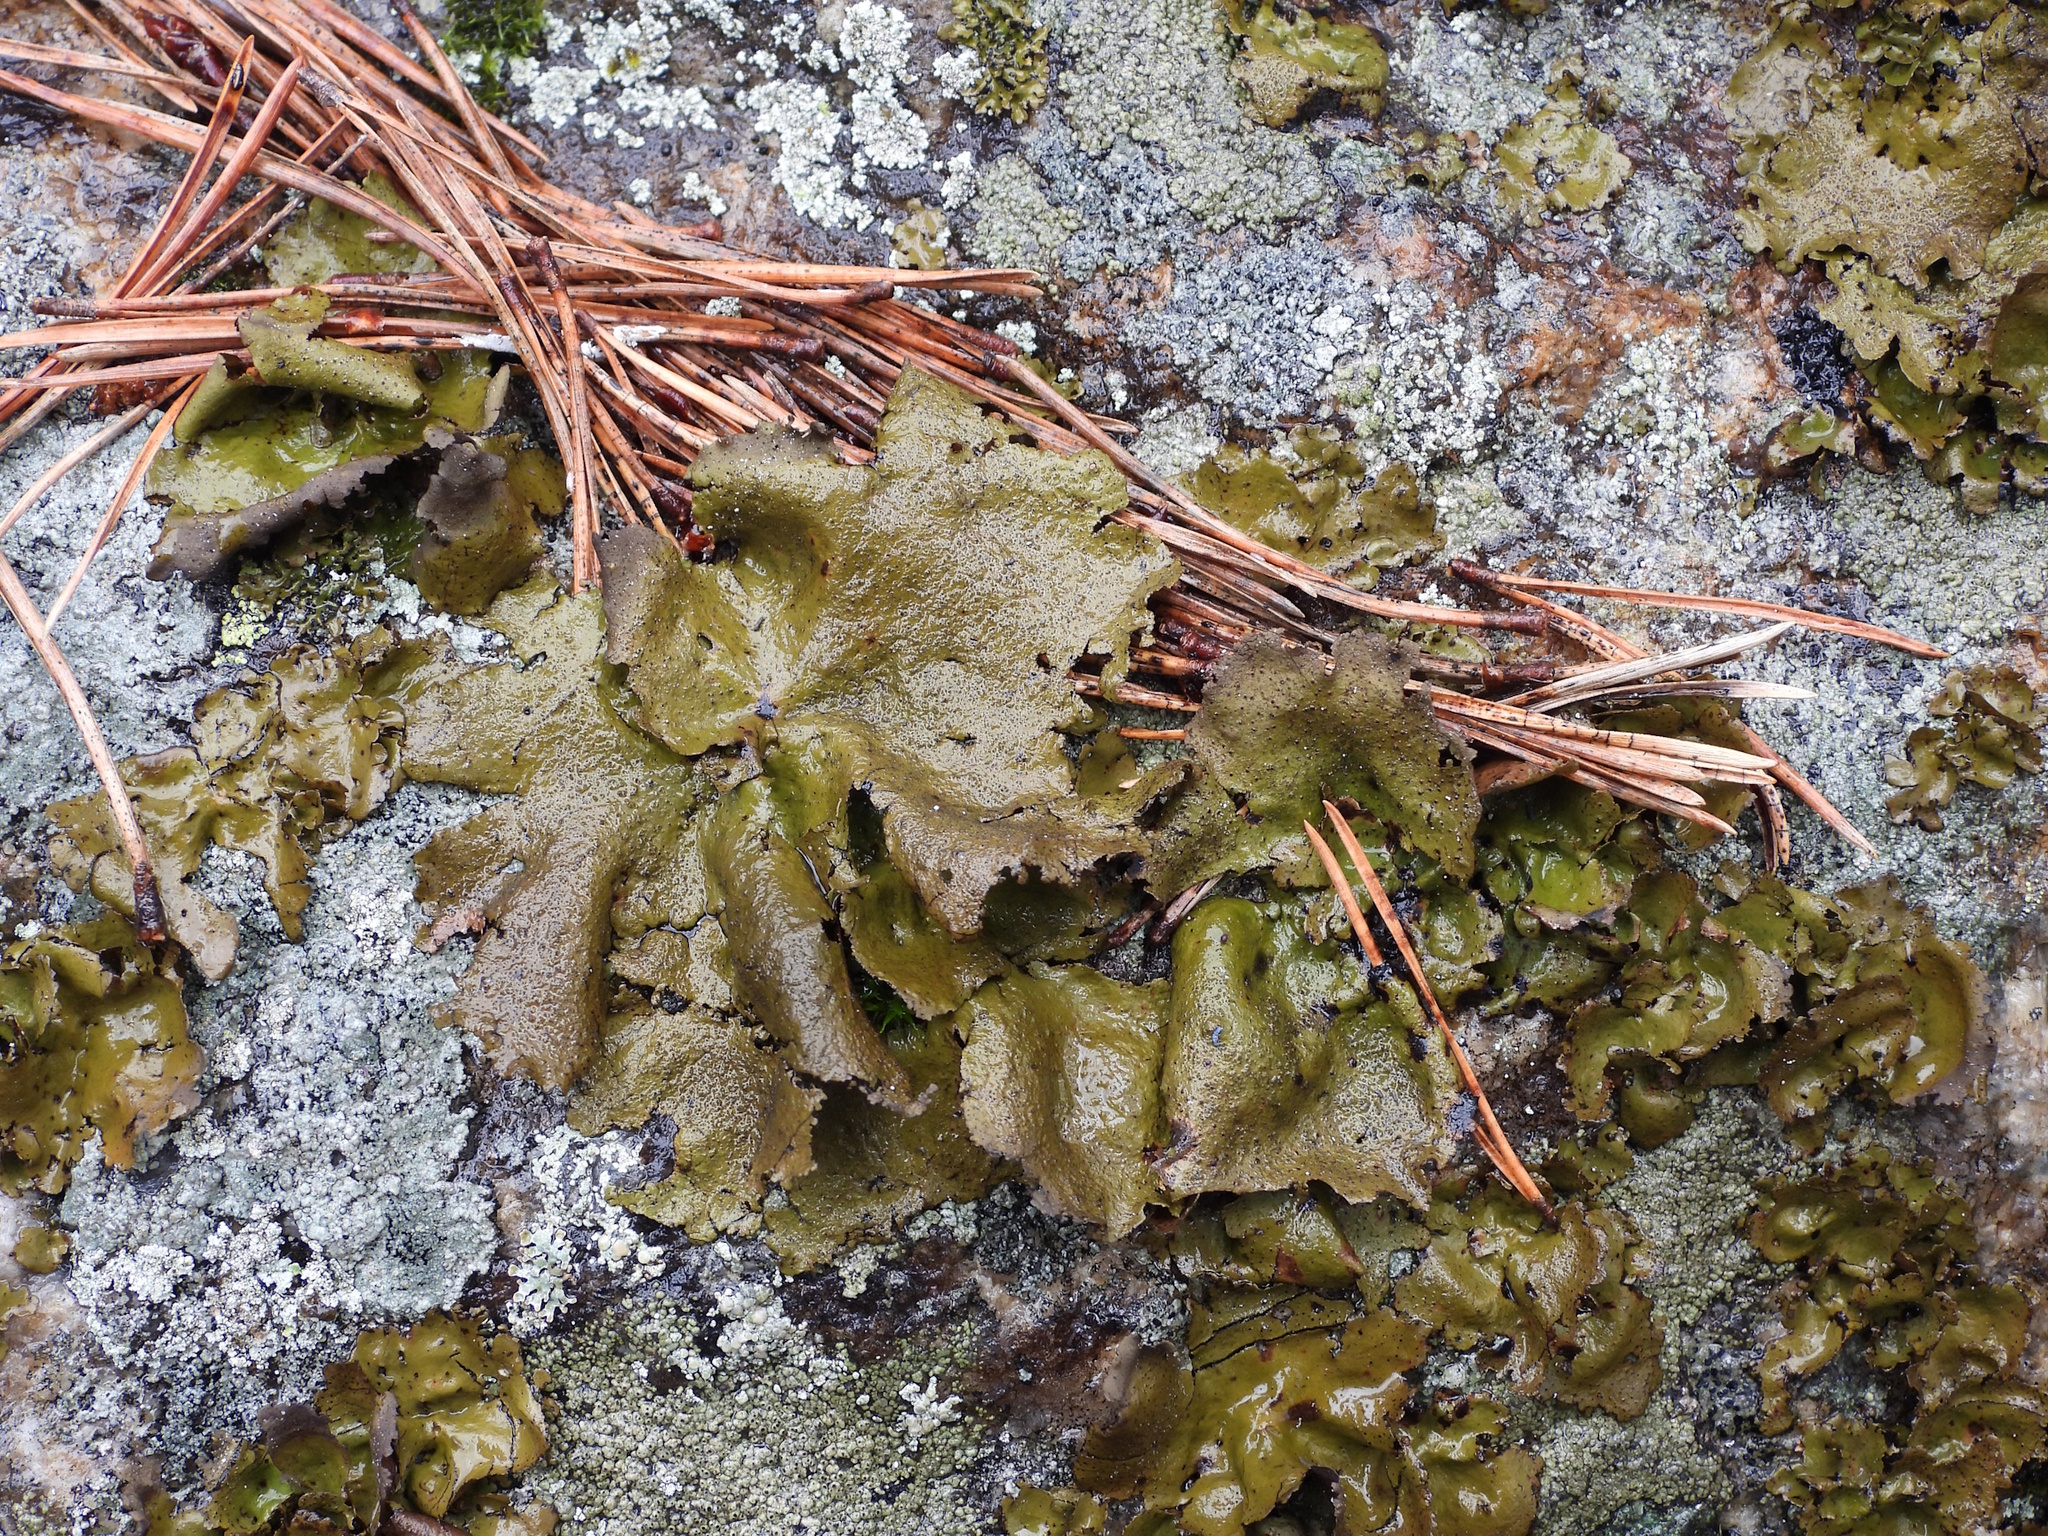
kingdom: Fungi
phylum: Ascomycota
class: Lecanoromycetes
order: Umbilicariales
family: Umbilicariaceae
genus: Umbilicaria
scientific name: Umbilicaria polyphylla
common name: Petalled rocktripe lichen
